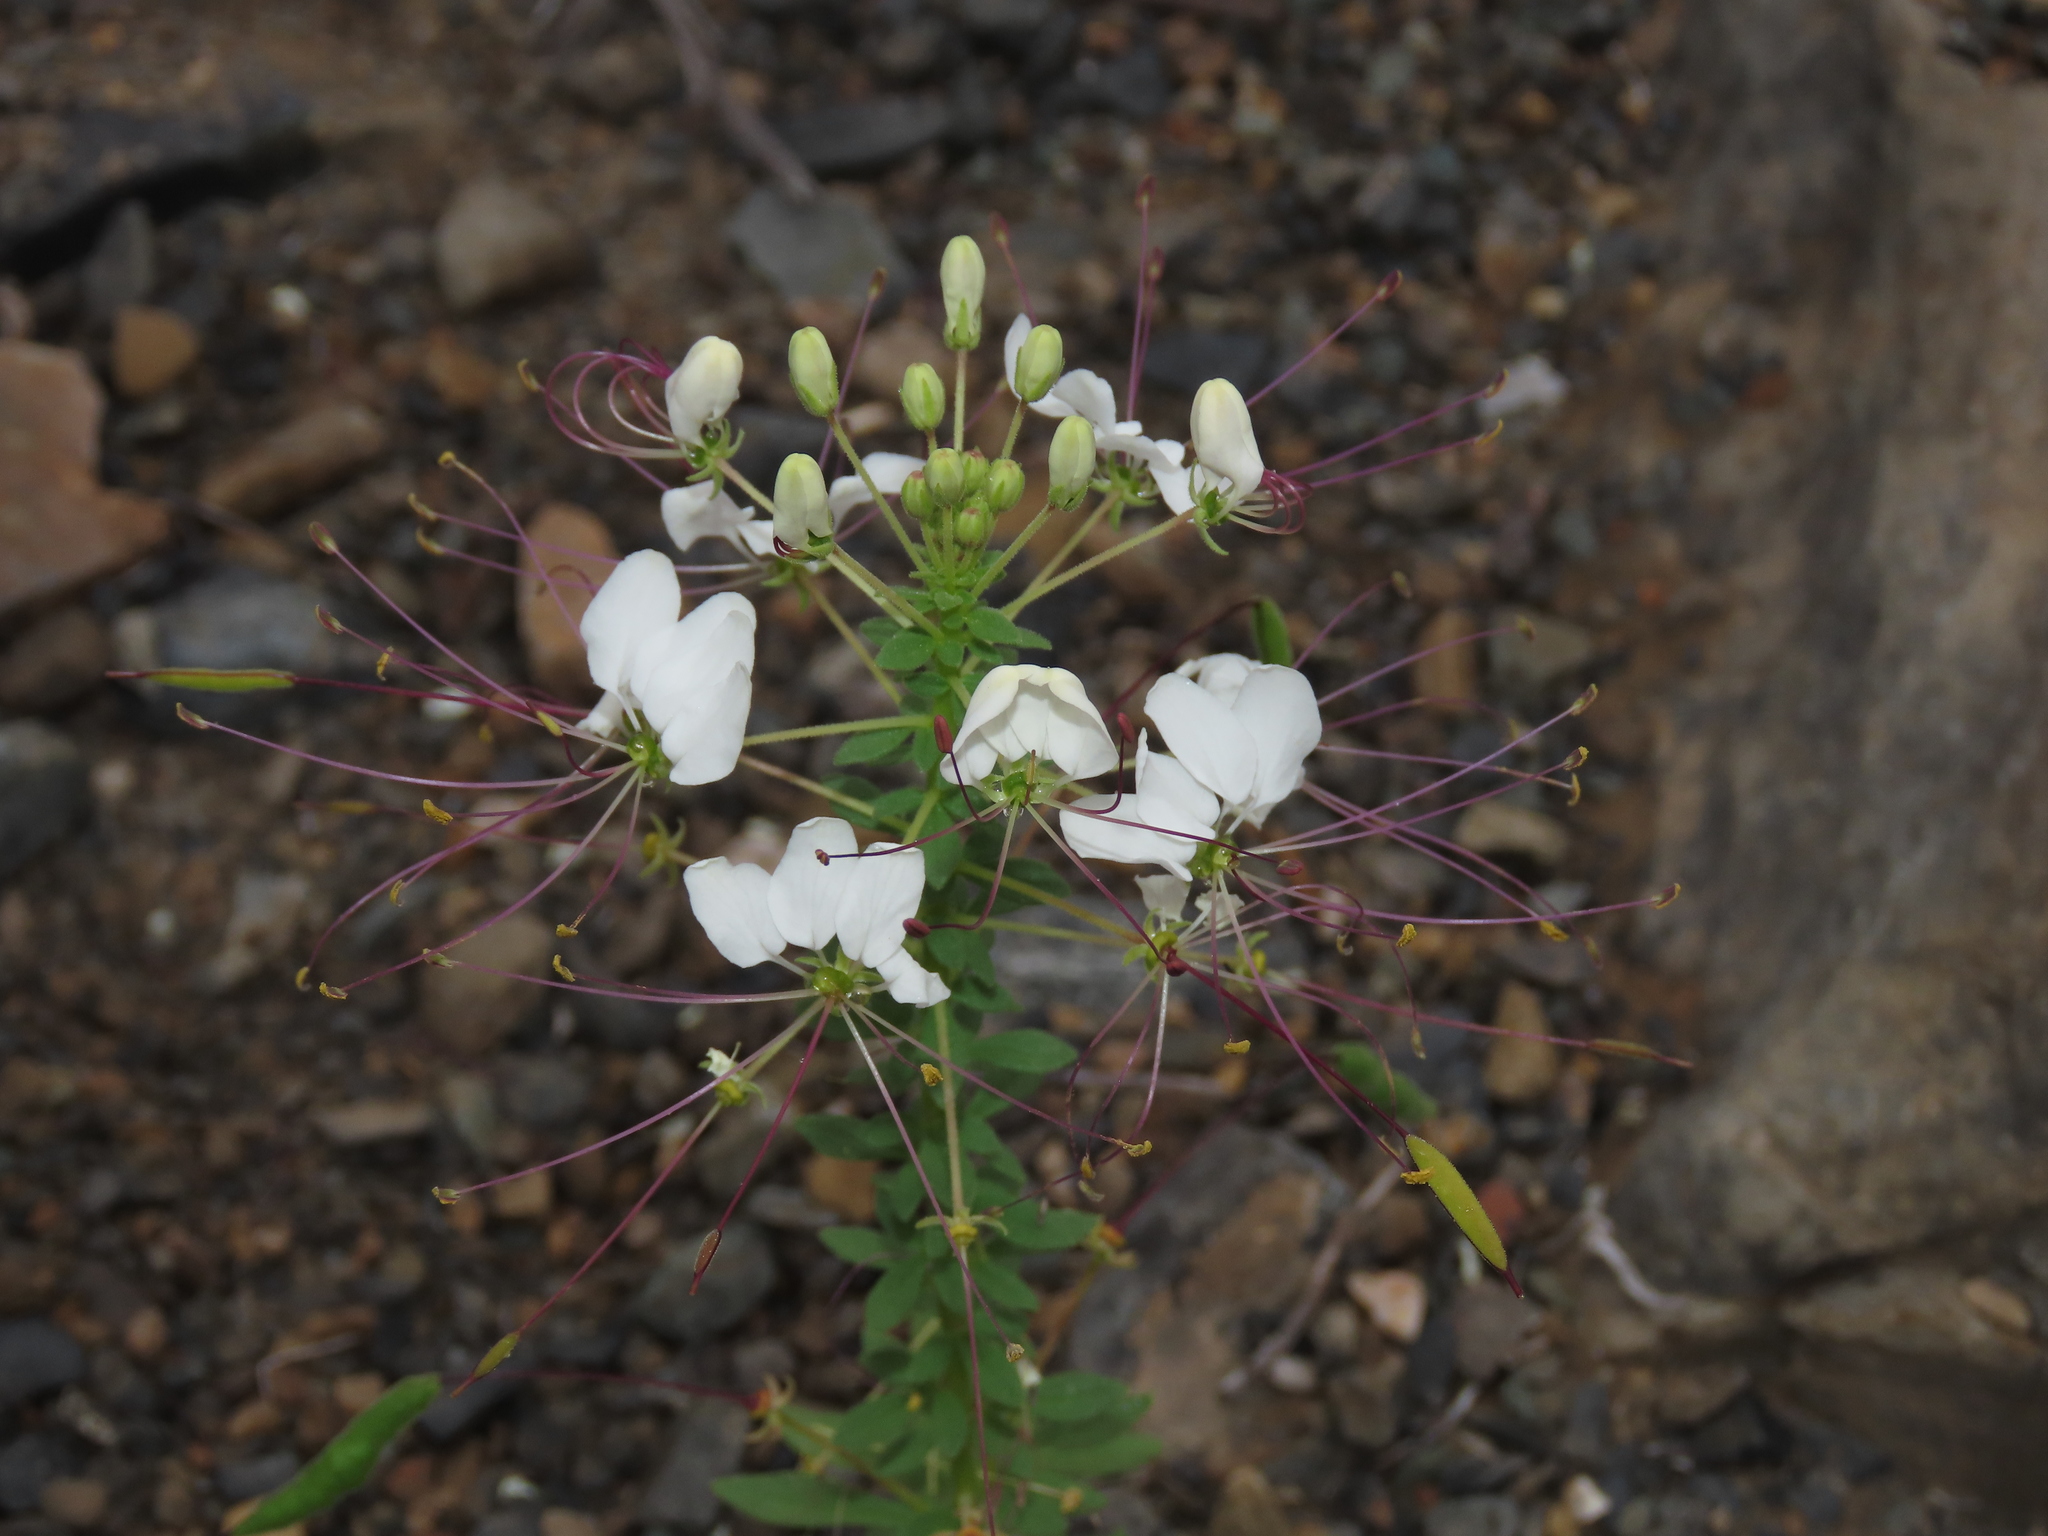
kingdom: Plantae
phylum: Tracheophyta
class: Magnoliopsida
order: Brassicales
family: Cleomaceae
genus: Andinocleome
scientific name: Andinocleome chilensis
